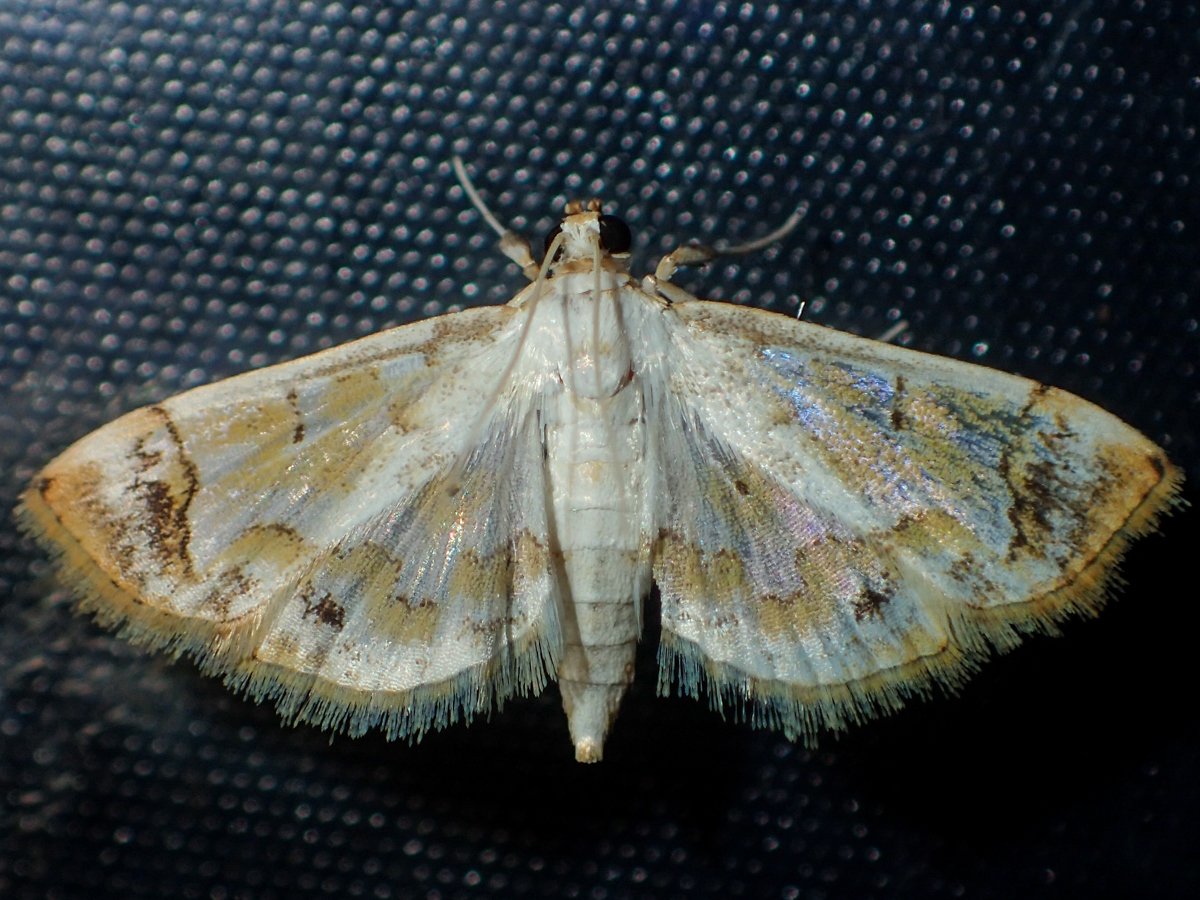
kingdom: Animalia
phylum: Arthropoda
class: Insecta
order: Lepidoptera
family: Crambidae
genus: Agrotera
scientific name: Agrotera barcealis
